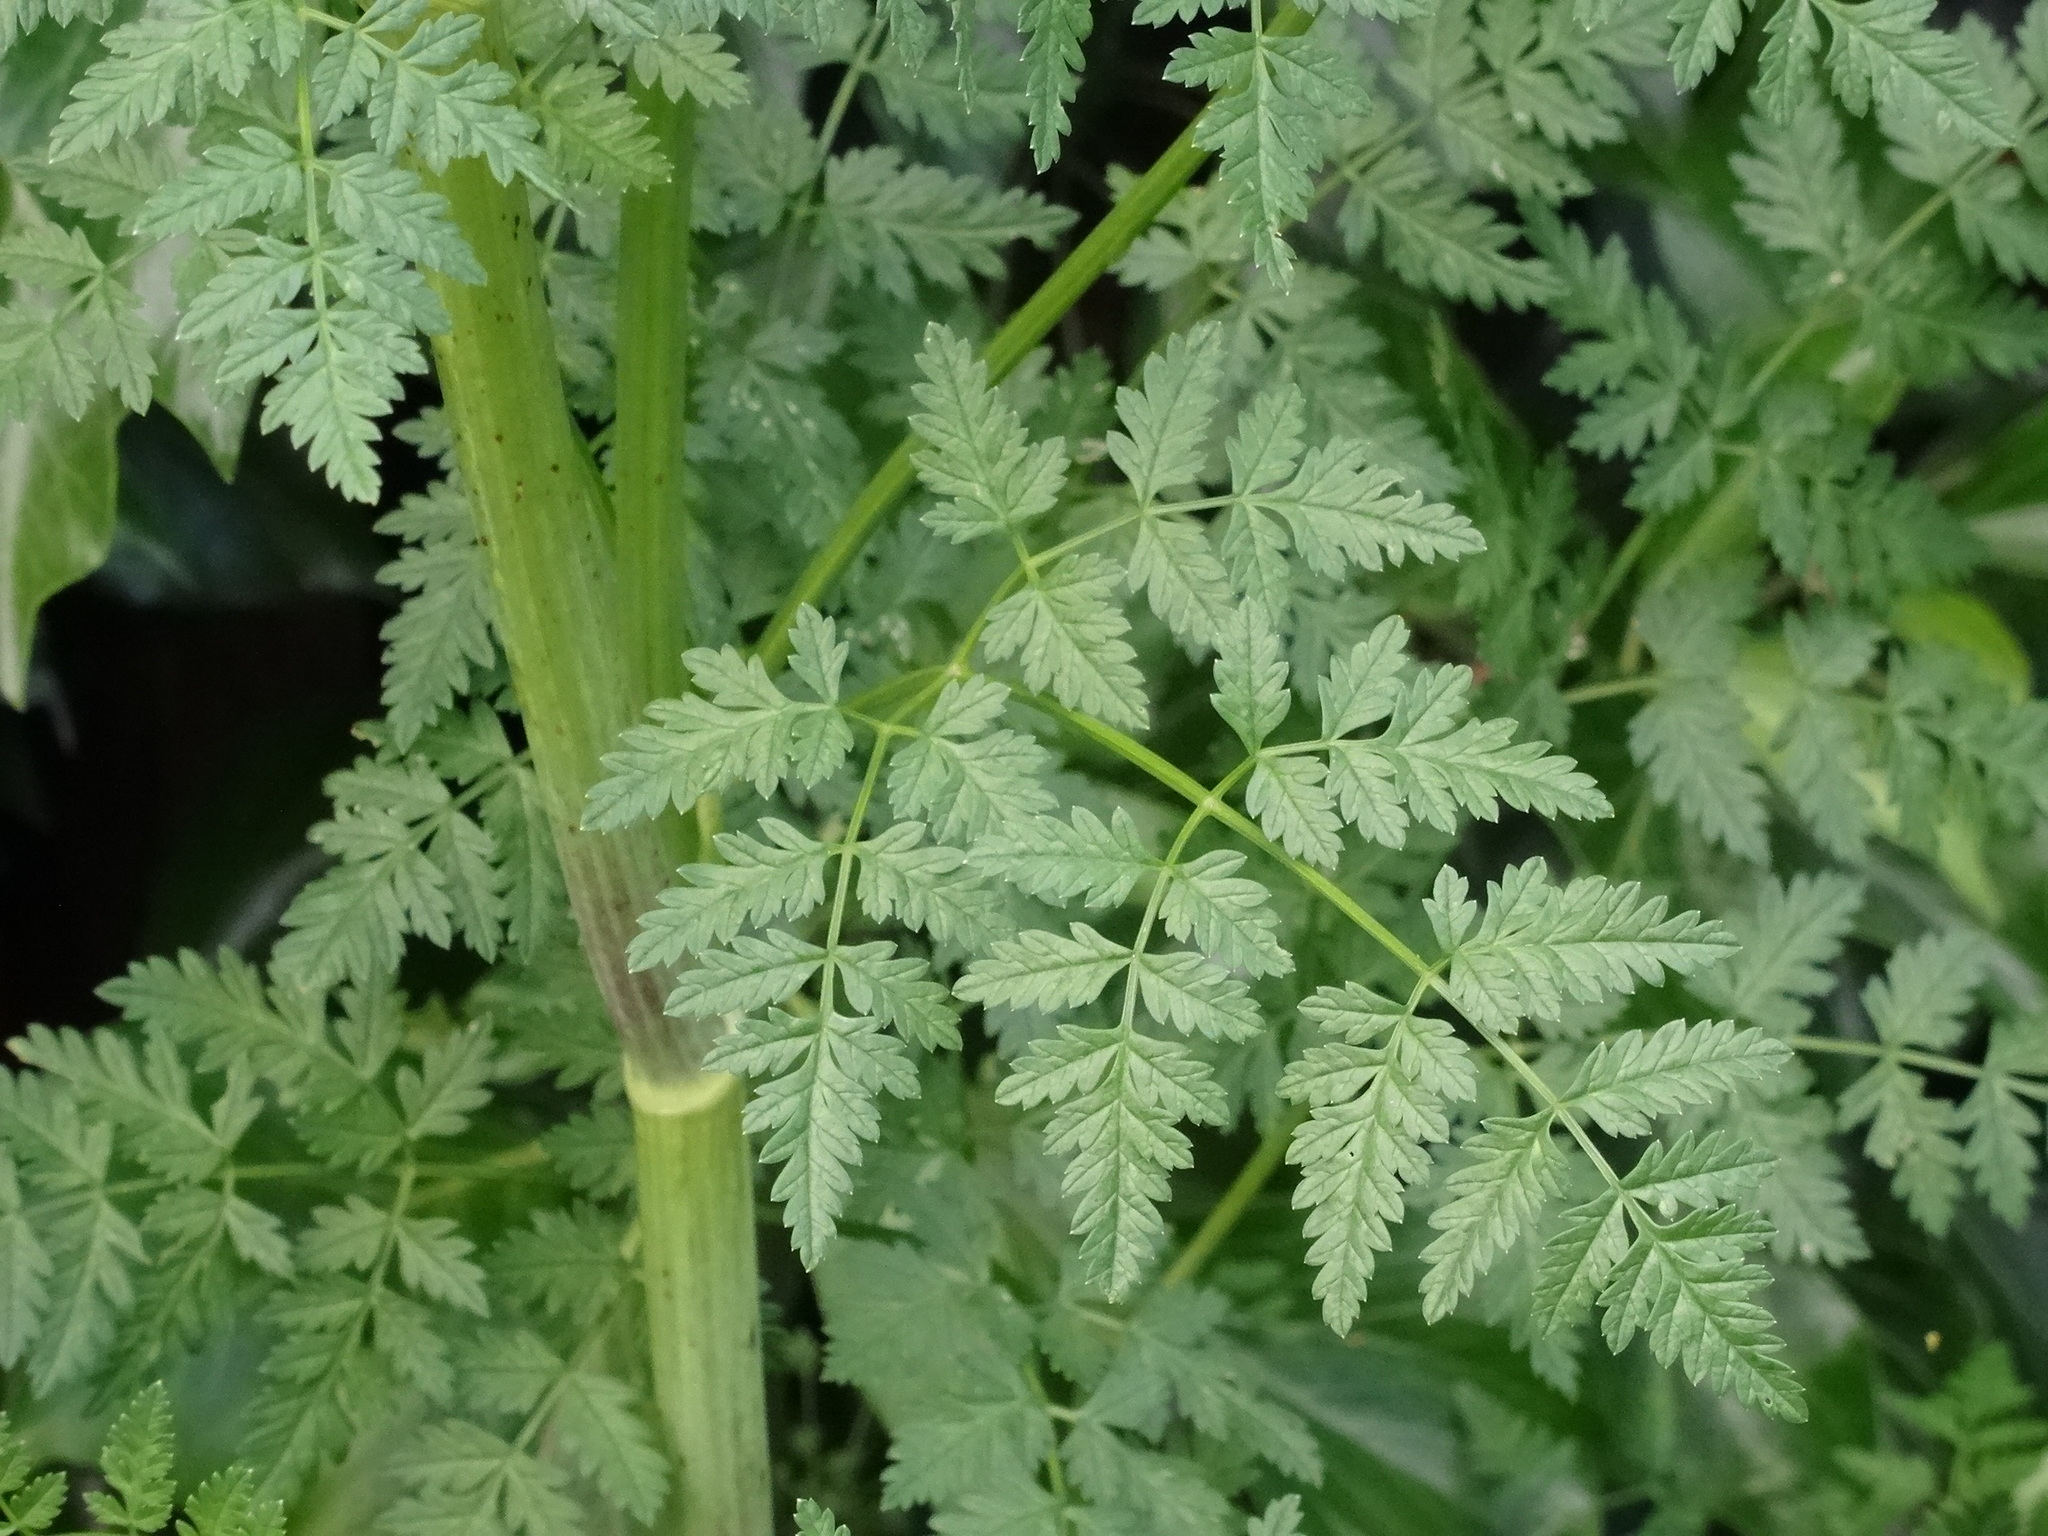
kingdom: Plantae
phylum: Tracheophyta
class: Magnoliopsida
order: Apiales
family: Apiaceae
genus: Conium
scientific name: Conium maculatum
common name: Hemlock
